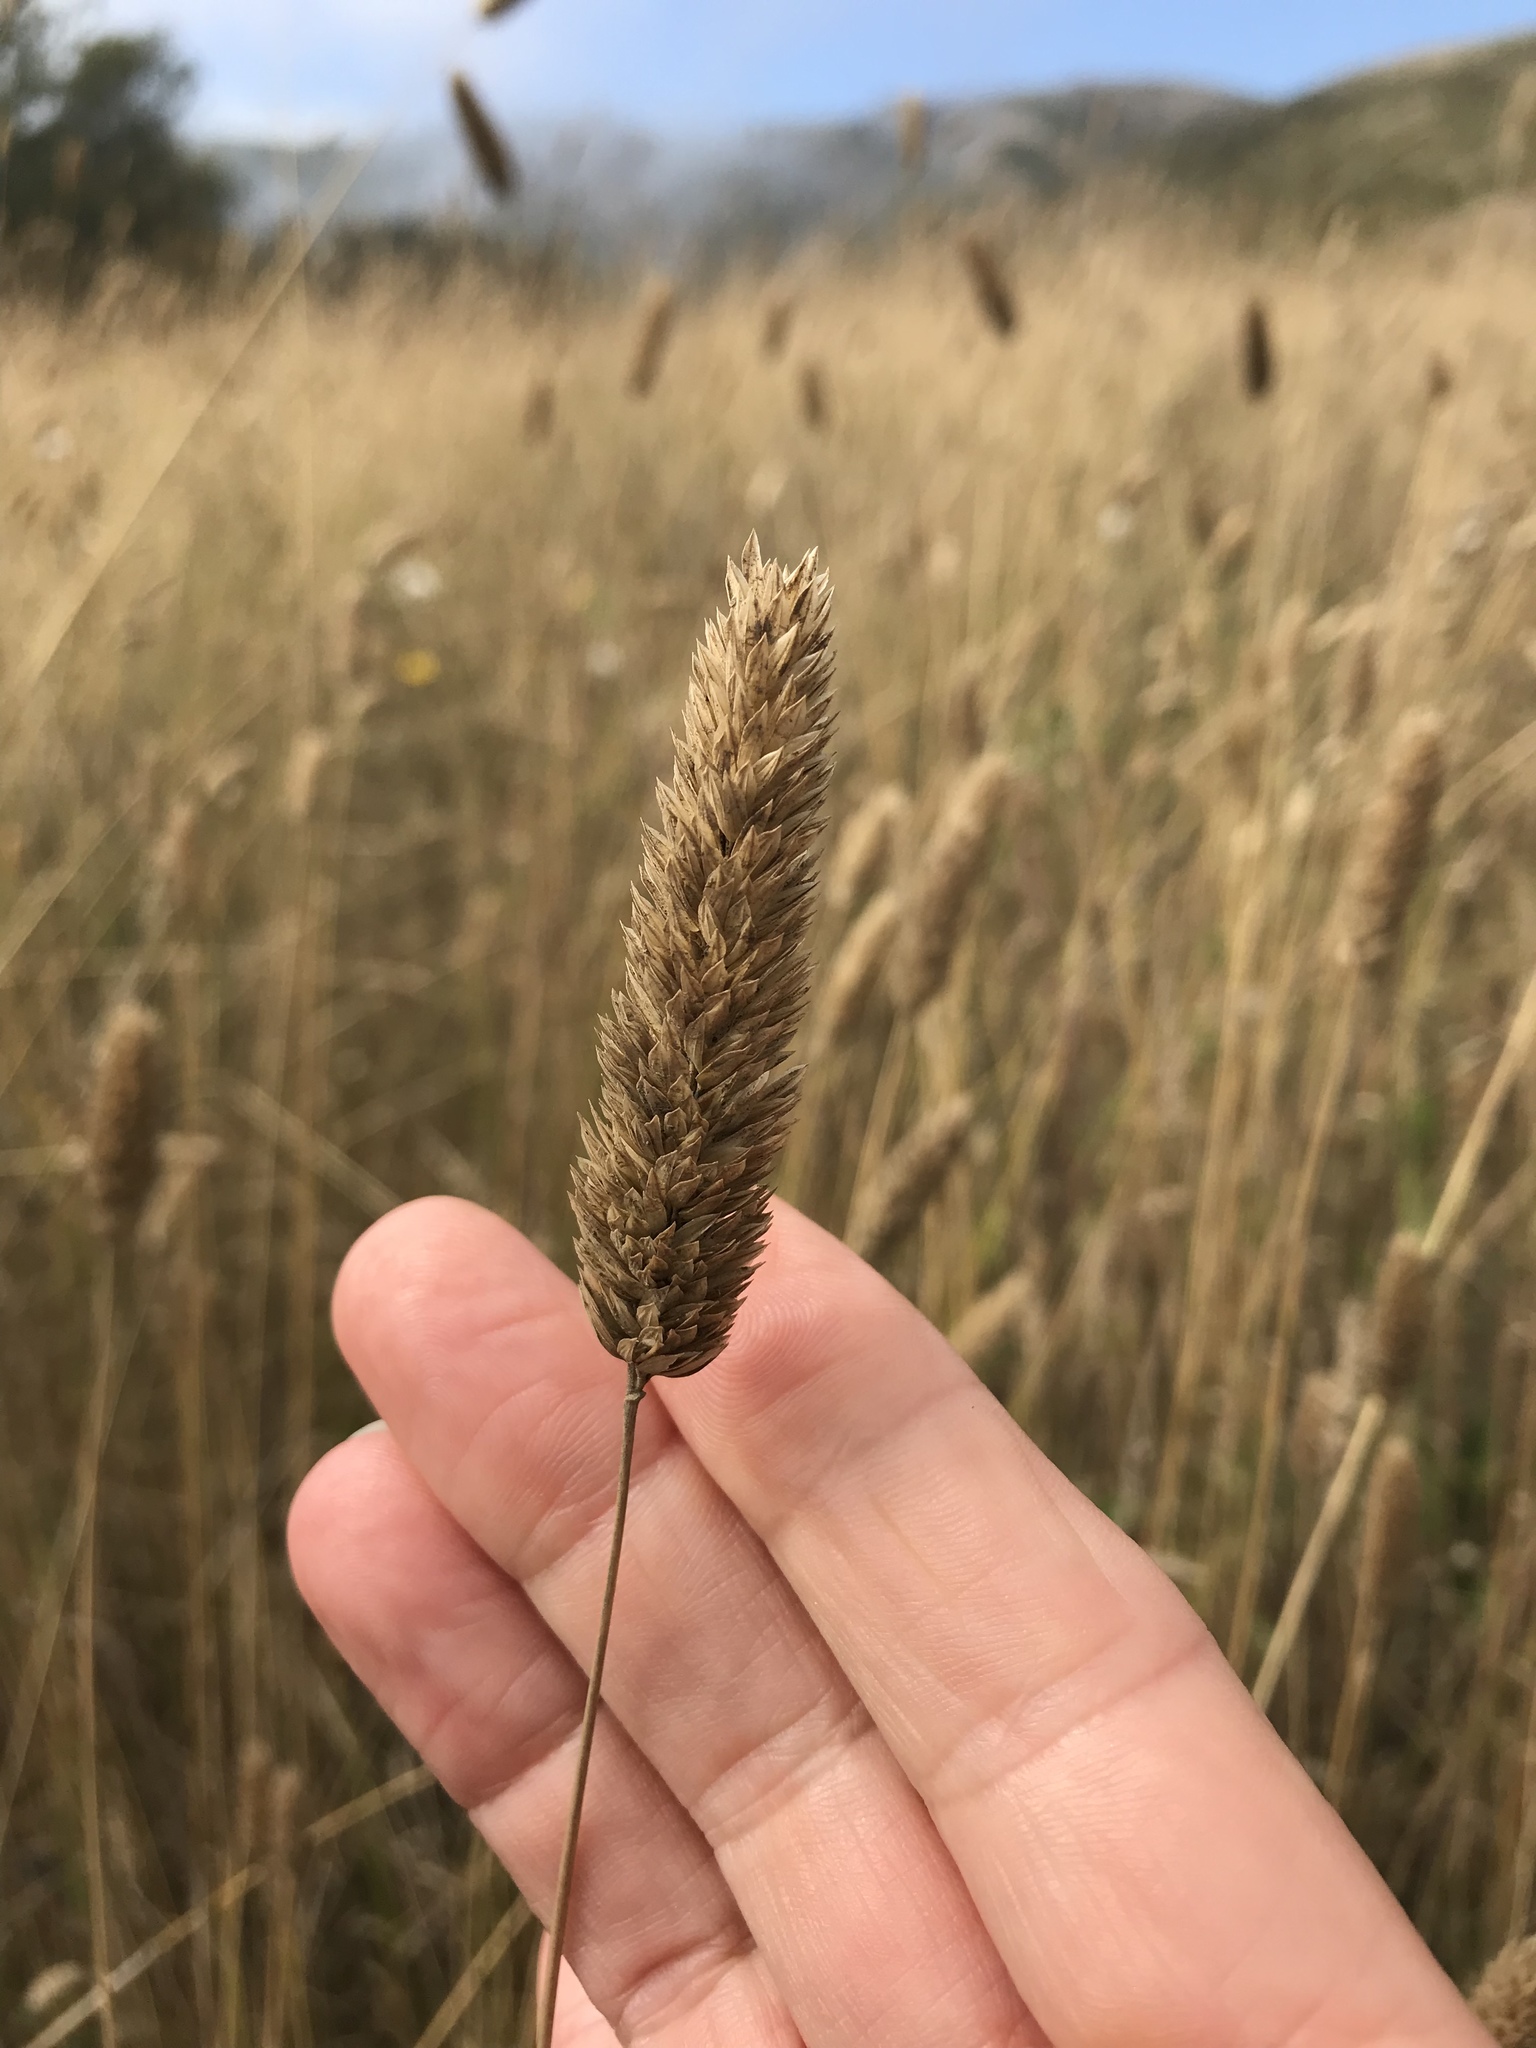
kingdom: Plantae
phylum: Tracheophyta
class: Liliopsida
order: Poales
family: Poaceae
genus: Phalaris
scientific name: Phalaris aquatica
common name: Bulbous canary-grass
